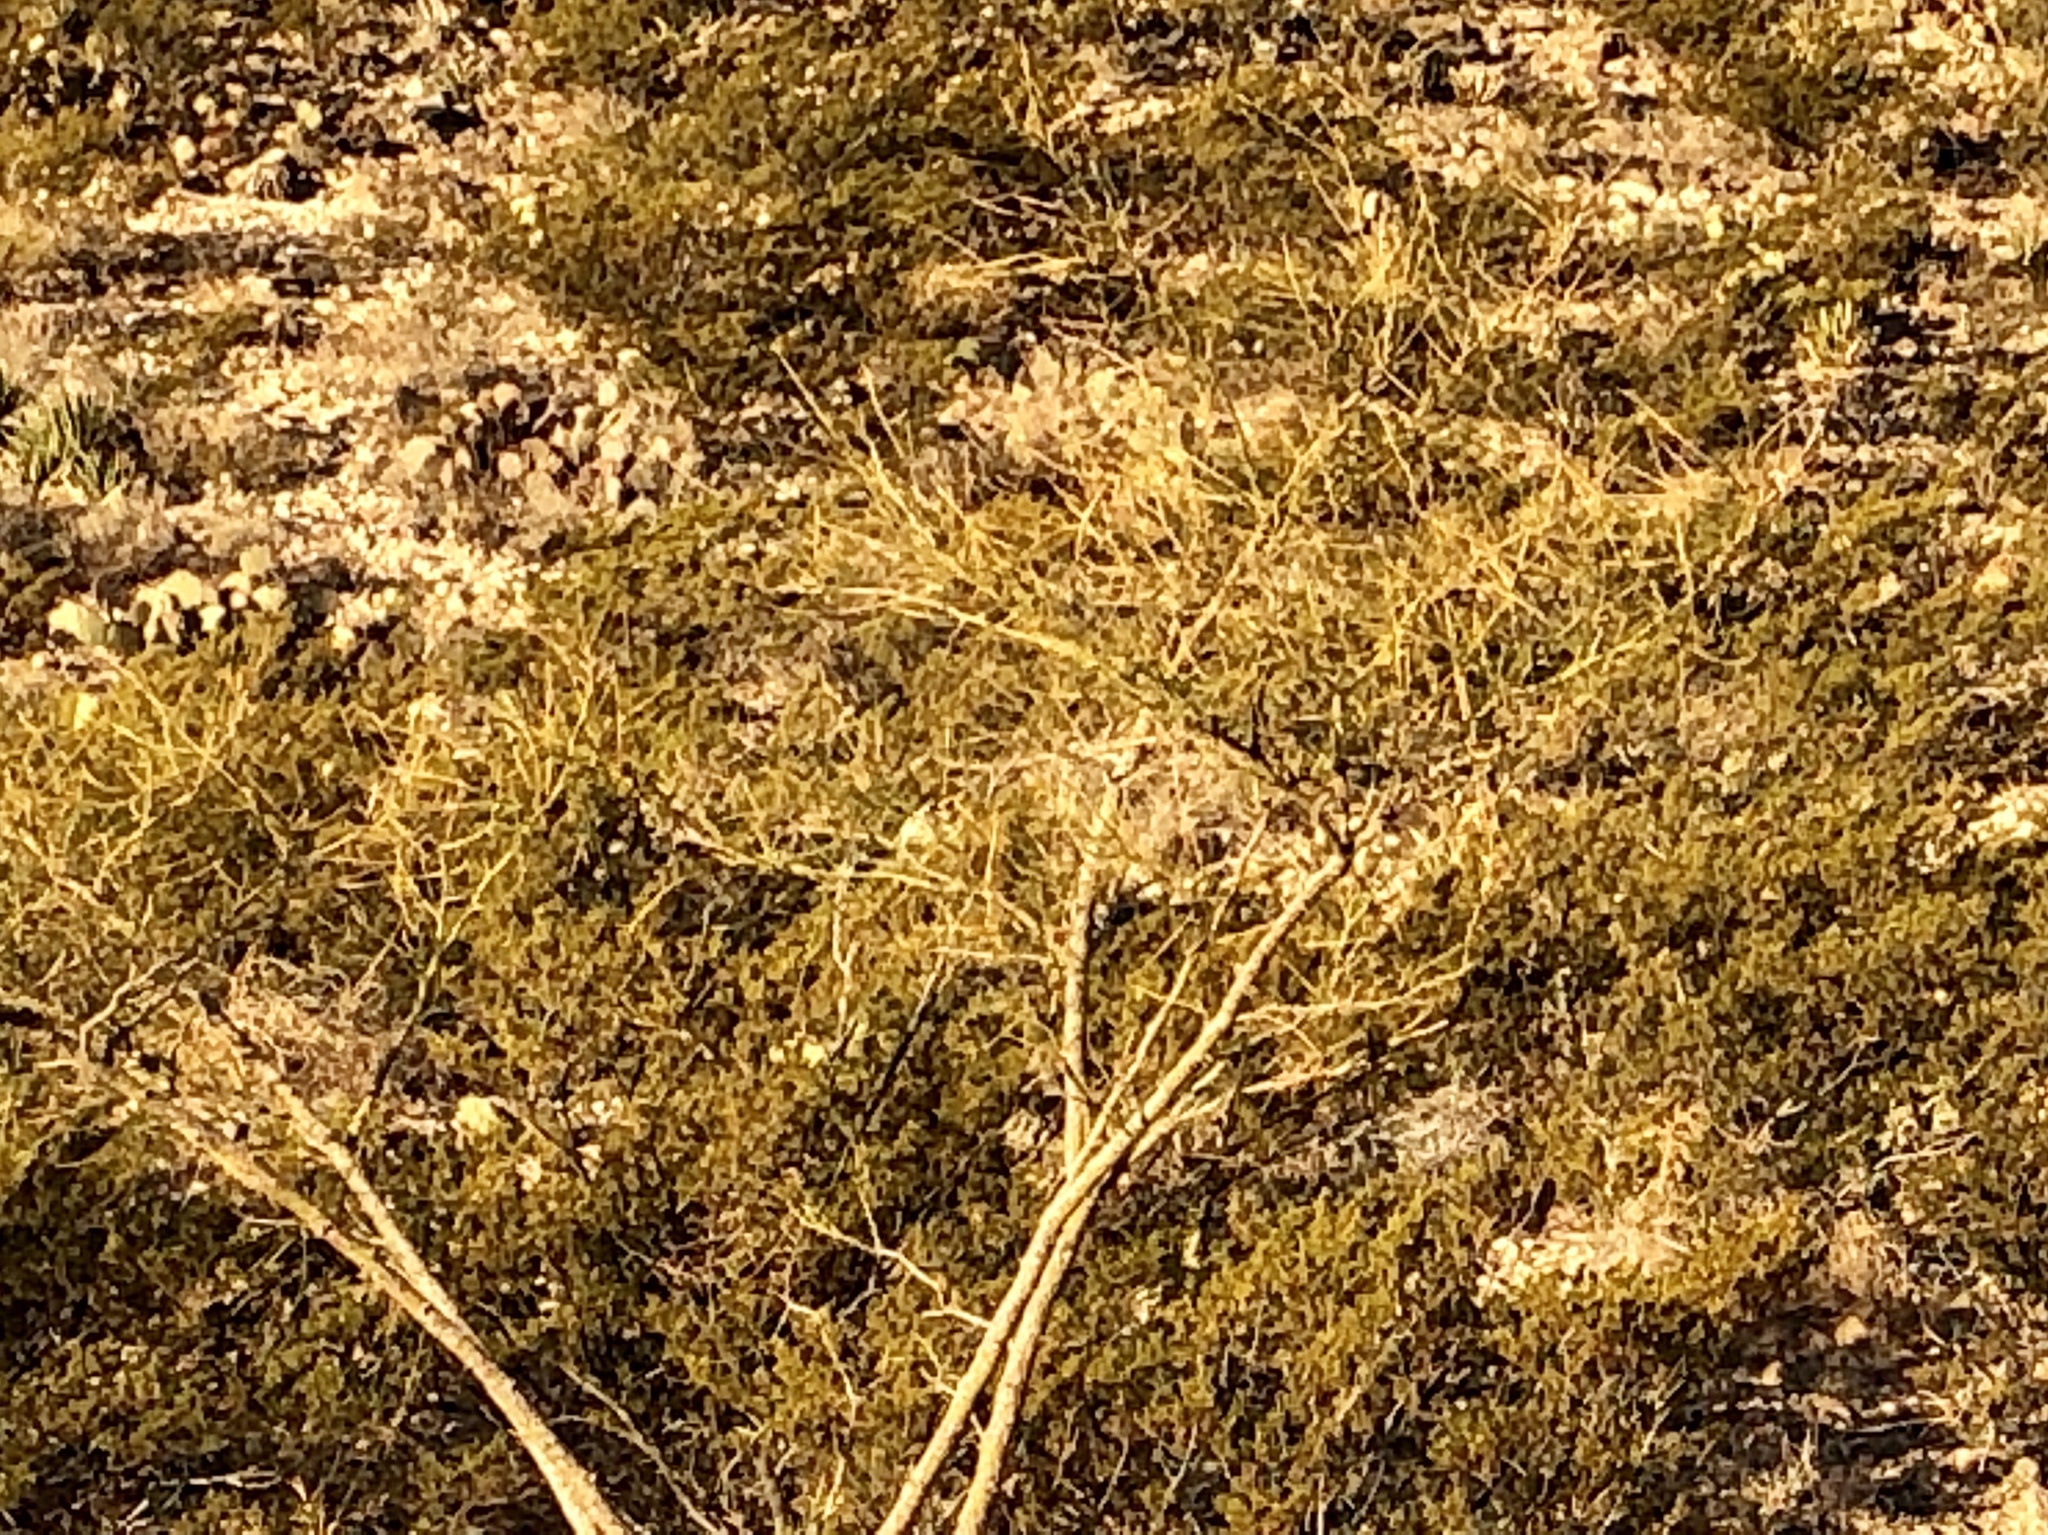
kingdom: Plantae
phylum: Tracheophyta
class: Magnoliopsida
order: Fabales
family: Fabaceae
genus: Parkinsonia
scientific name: Parkinsonia aculeata
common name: Jerusalem thorn
